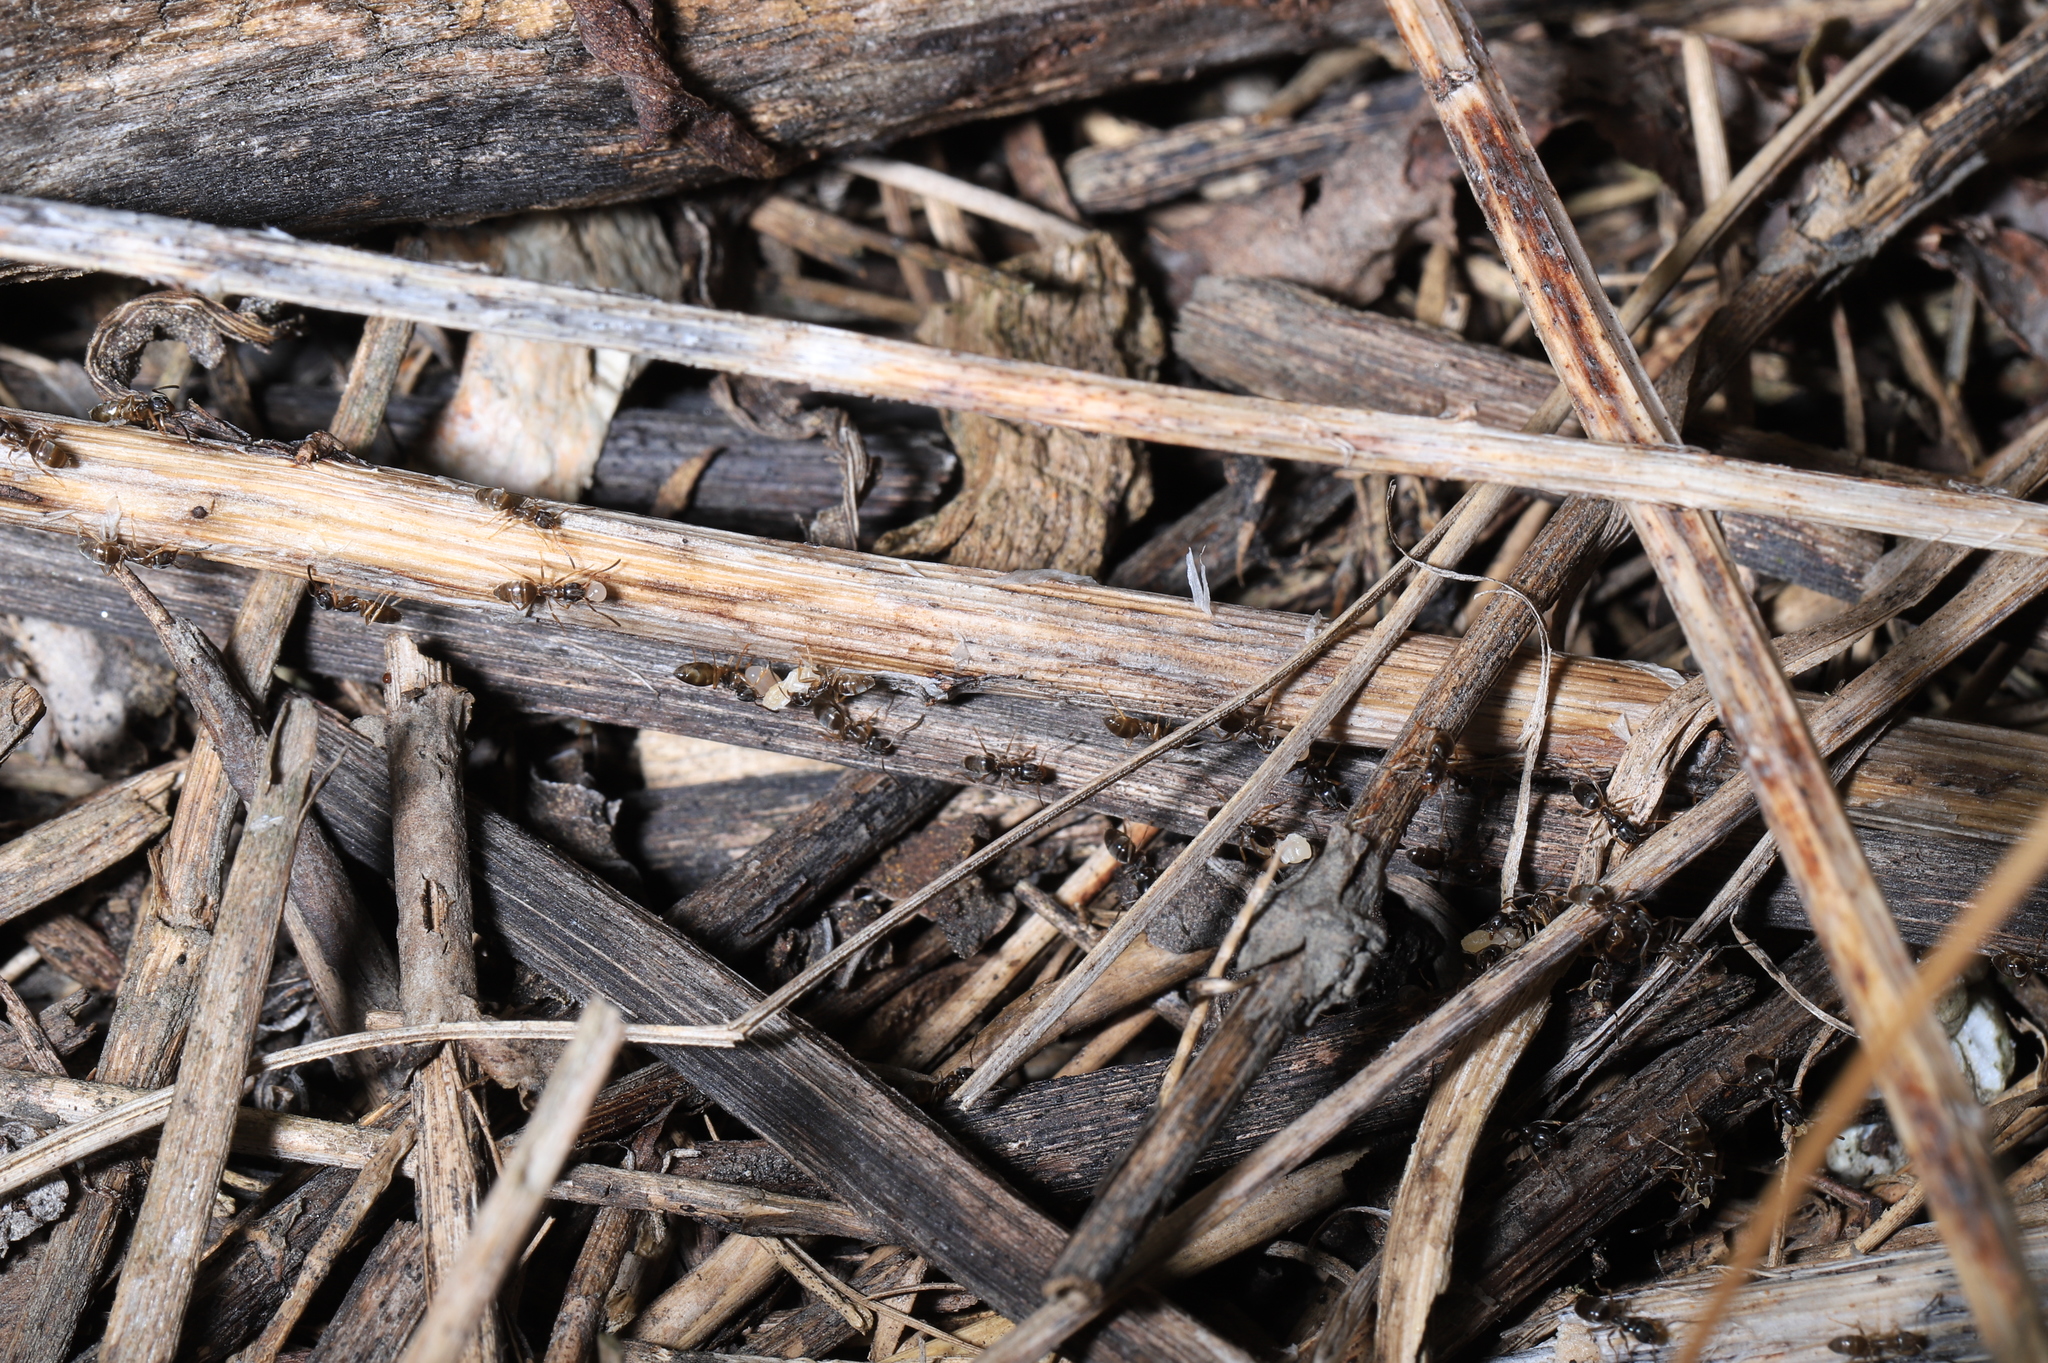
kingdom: Animalia
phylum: Arthropoda
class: Insecta
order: Hymenoptera
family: Formicidae
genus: Tapinoma
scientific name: Tapinoma sessile
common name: Odorous house ant
